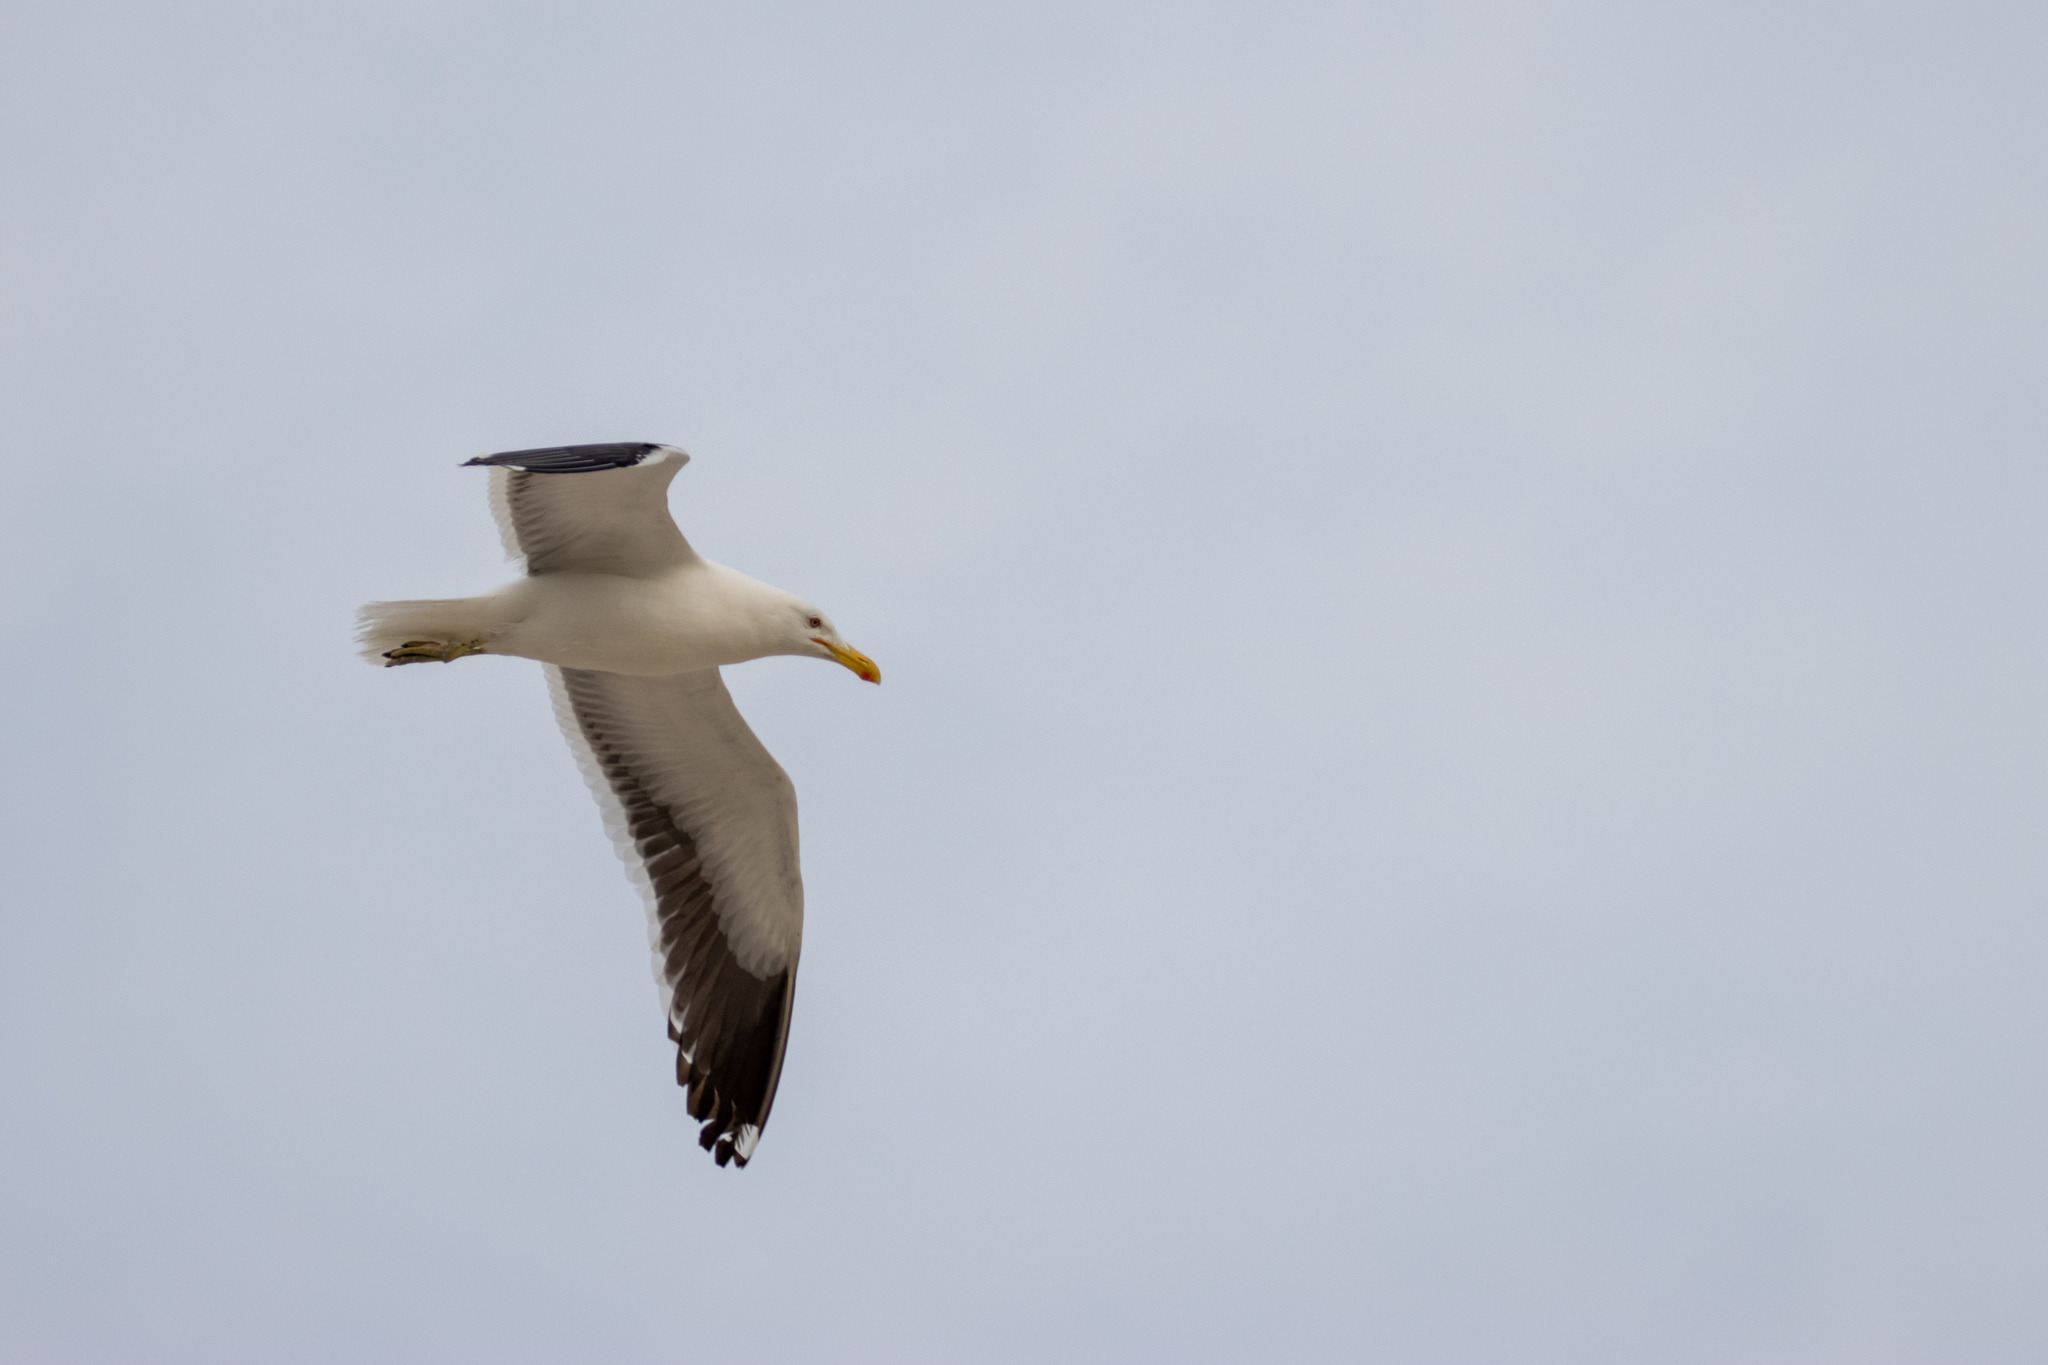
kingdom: Animalia
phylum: Chordata
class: Aves
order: Charadriiformes
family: Laridae
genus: Larus
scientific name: Larus dominicanus
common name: Kelp gull
